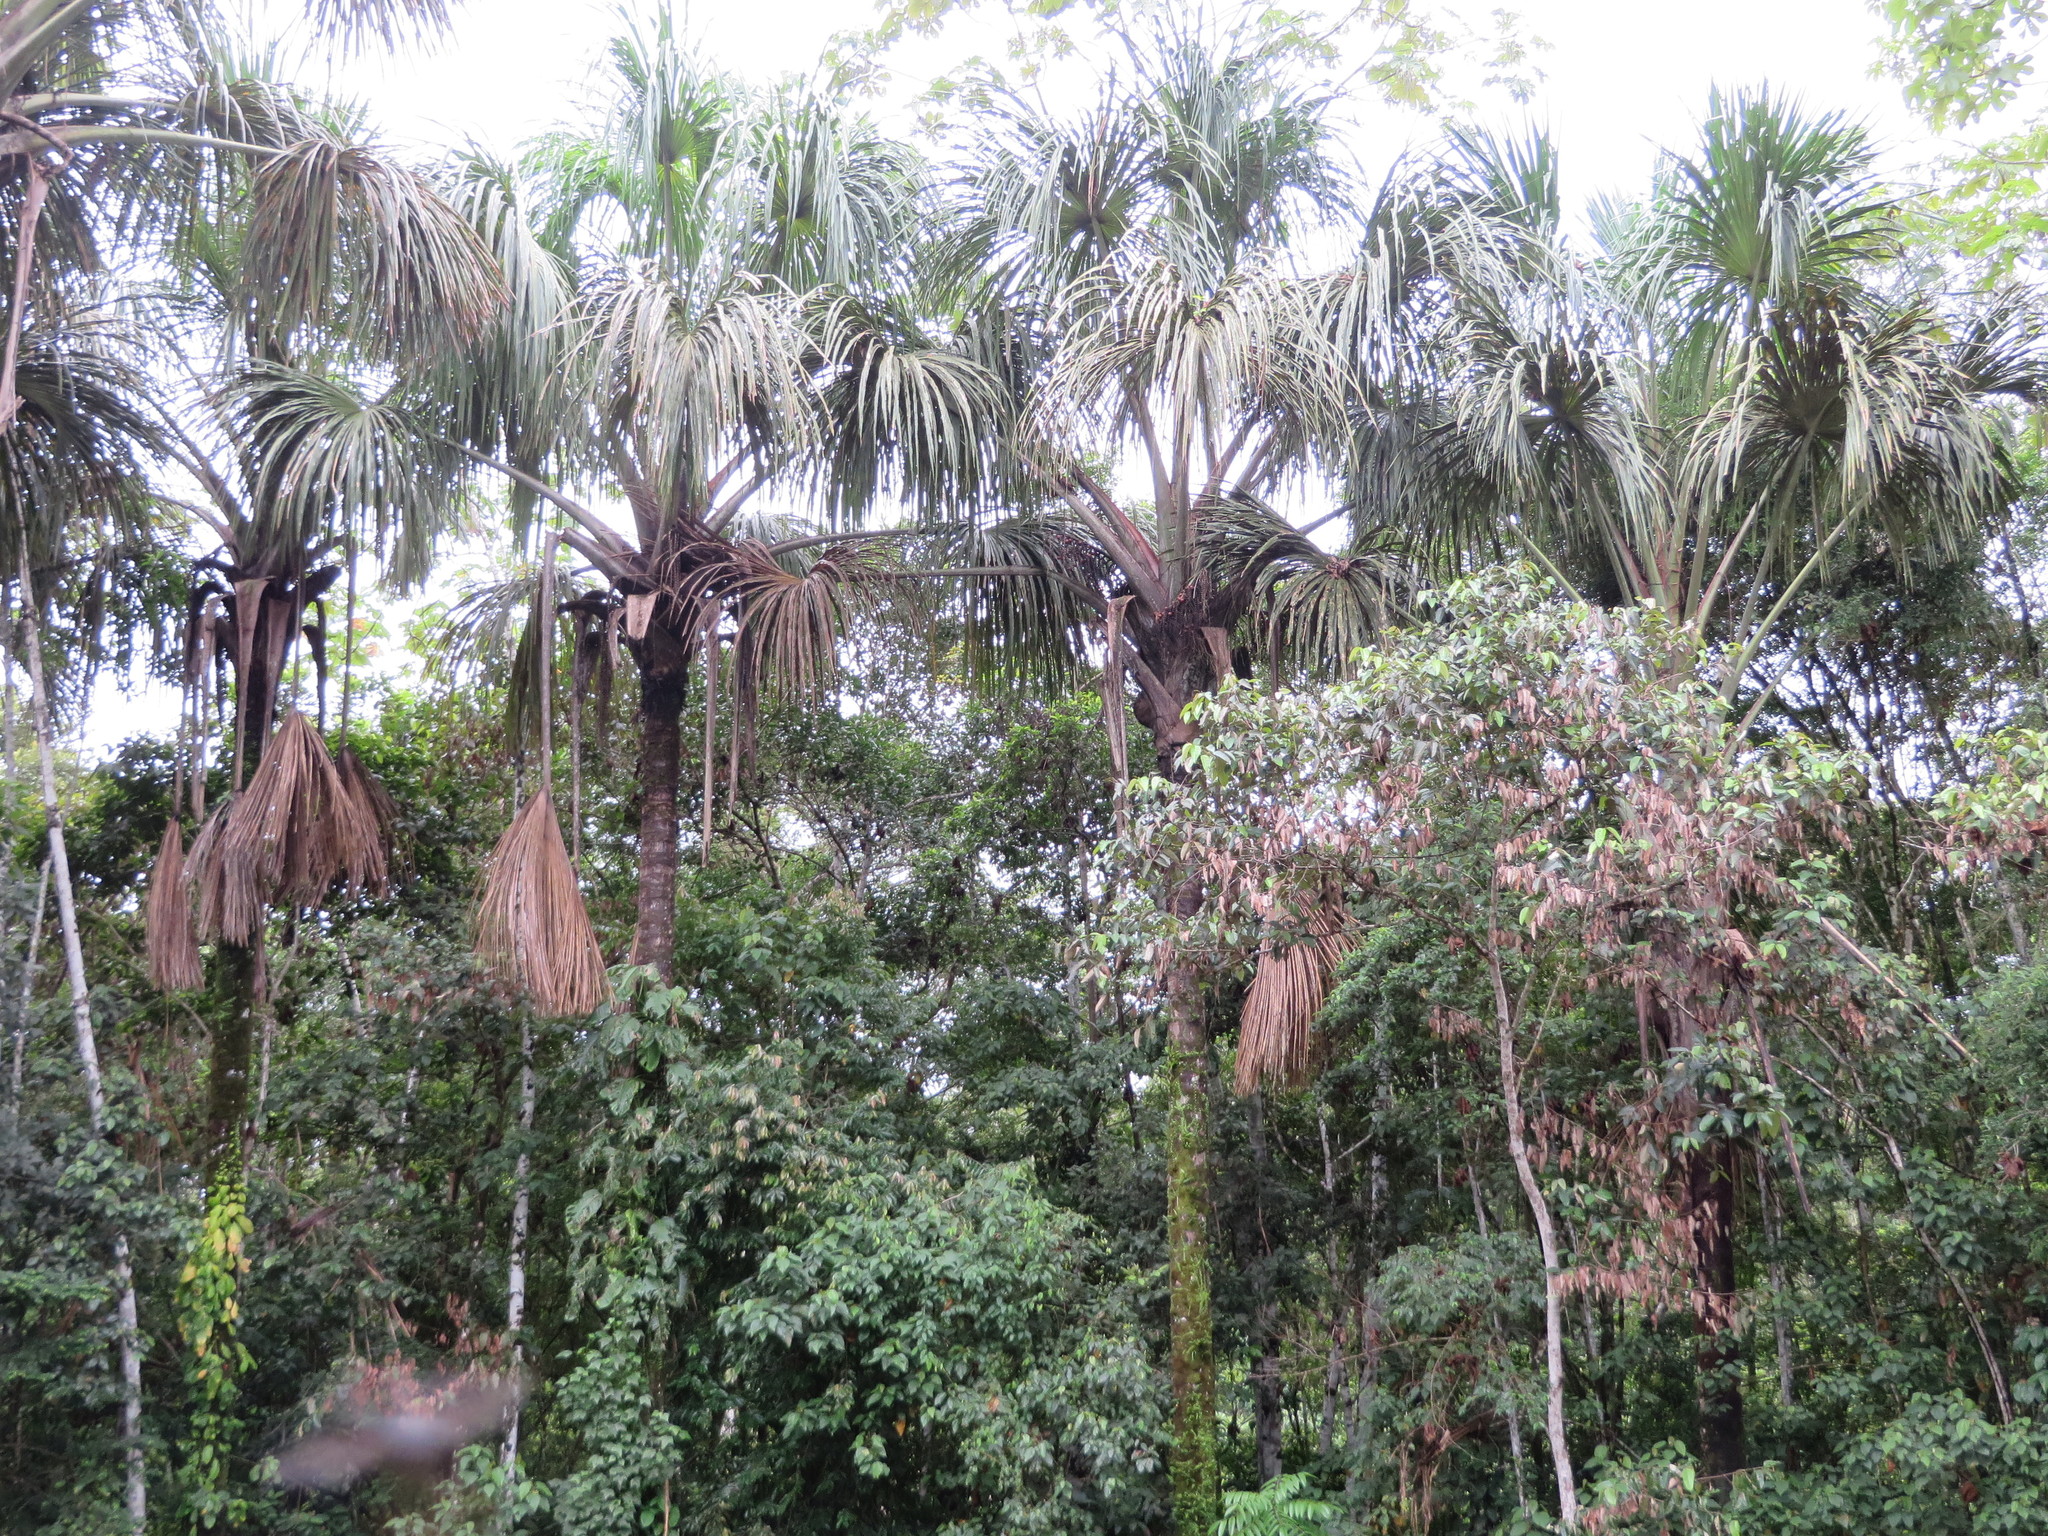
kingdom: Plantae
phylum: Tracheophyta
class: Liliopsida
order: Arecales
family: Arecaceae
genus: Mauritia
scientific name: Mauritia flexuosa
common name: Tree-of-life
